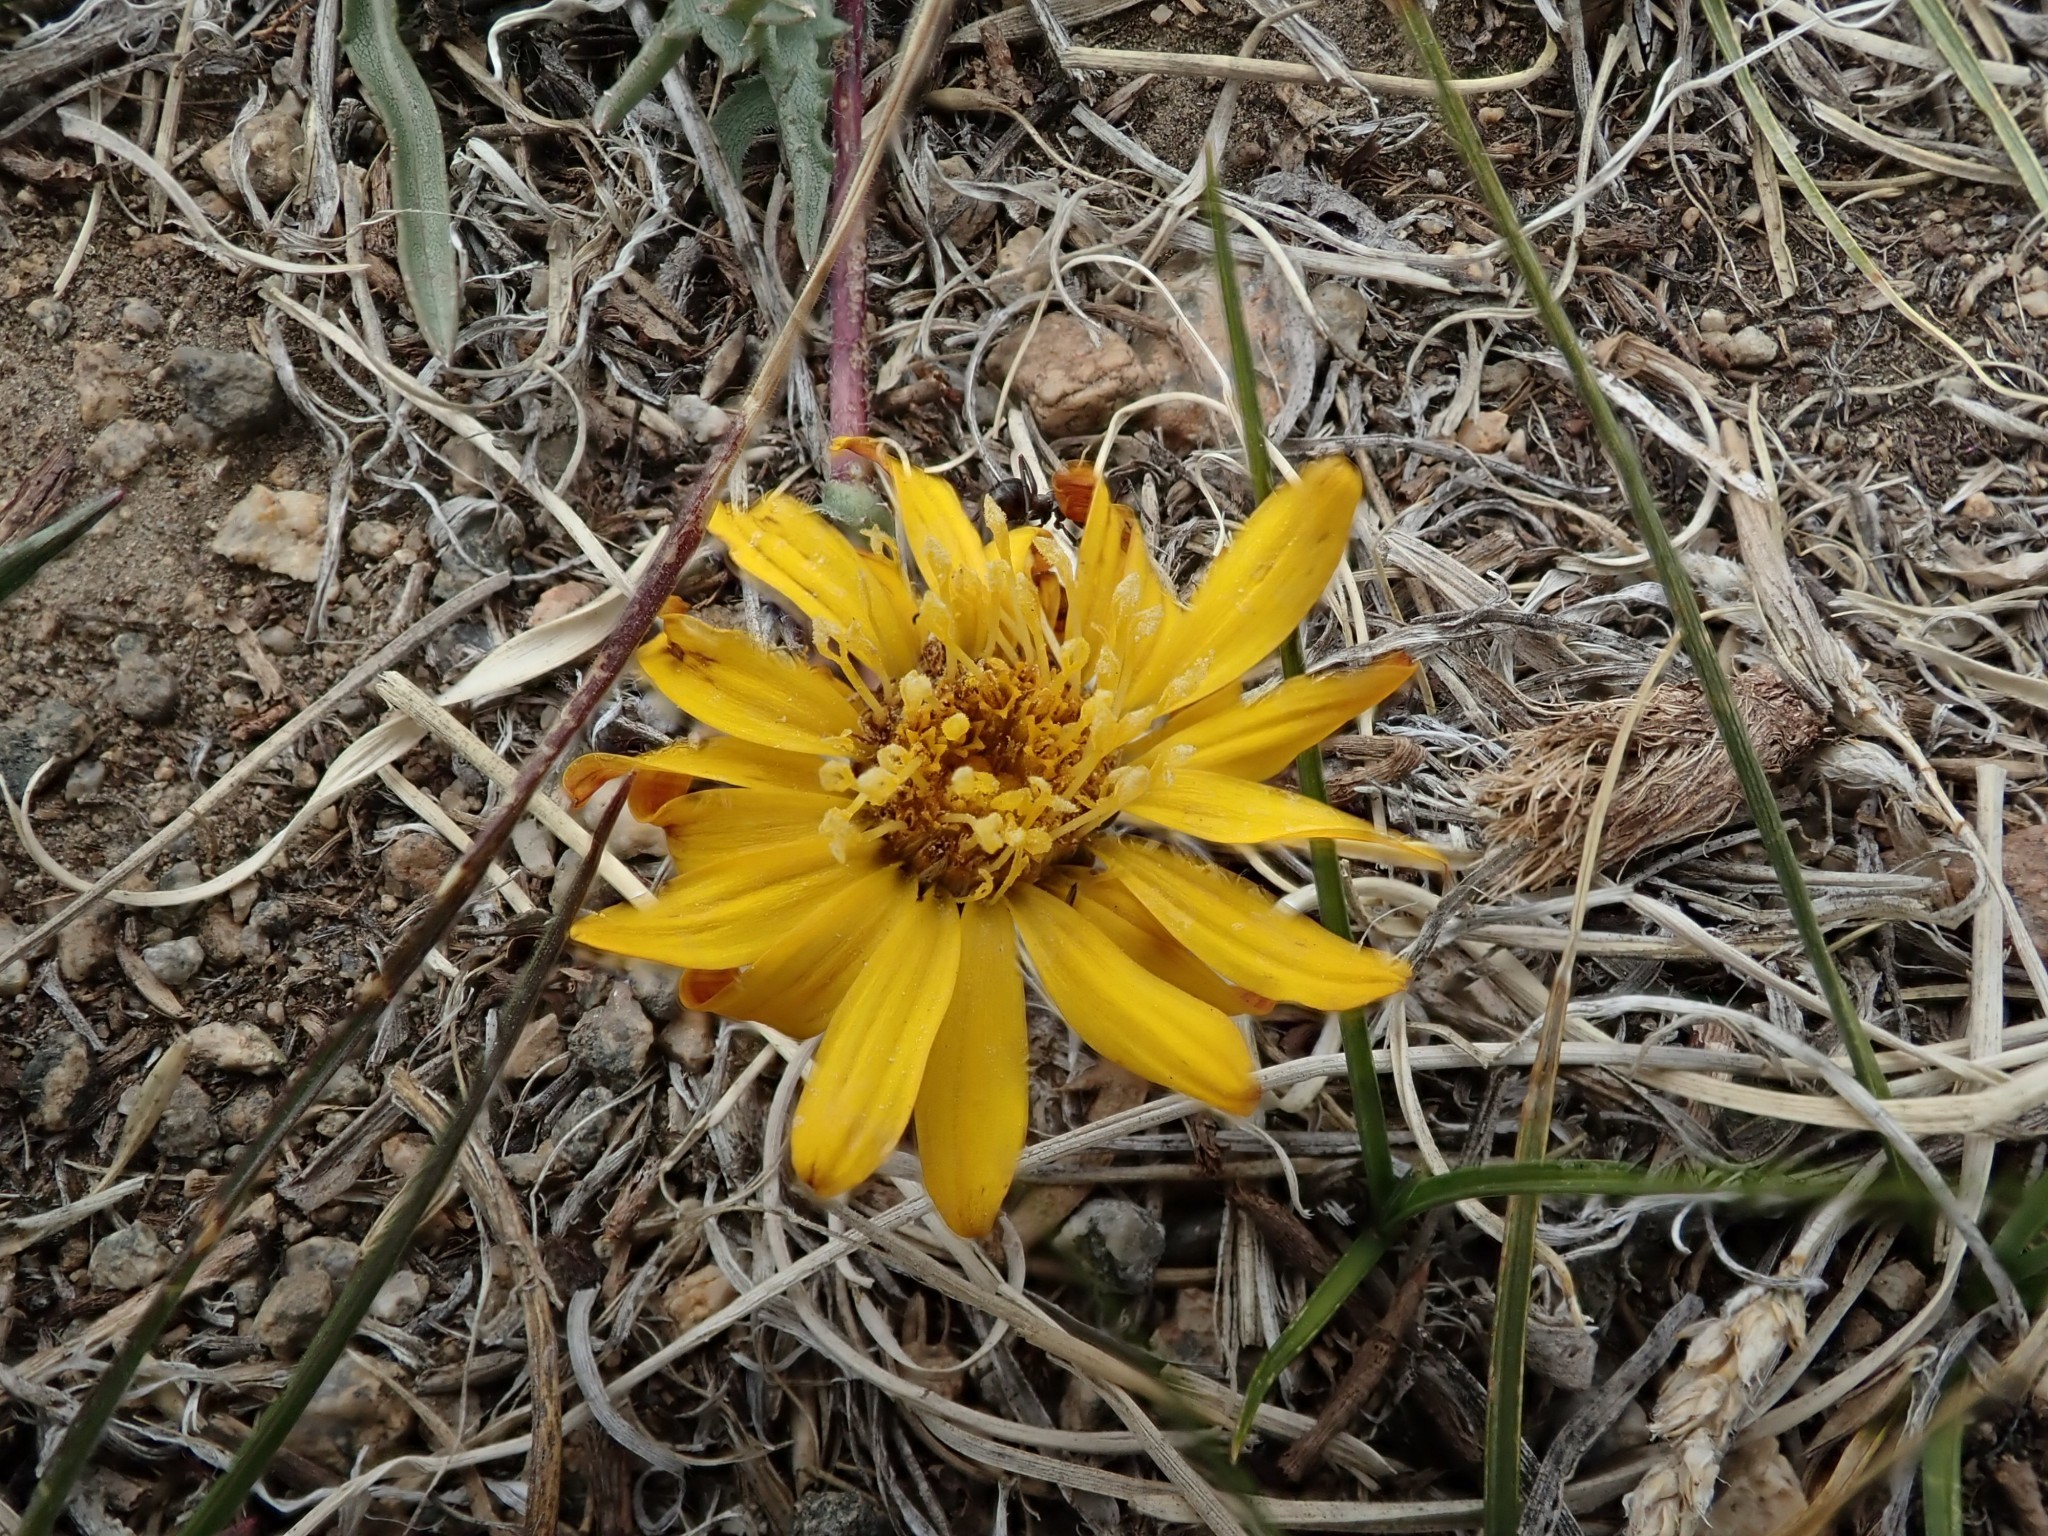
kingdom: Plantae
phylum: Tracheophyta
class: Magnoliopsida
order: Asterales
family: Asteraceae
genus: Pyrrocoma
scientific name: Pyrrocoma apargioides
